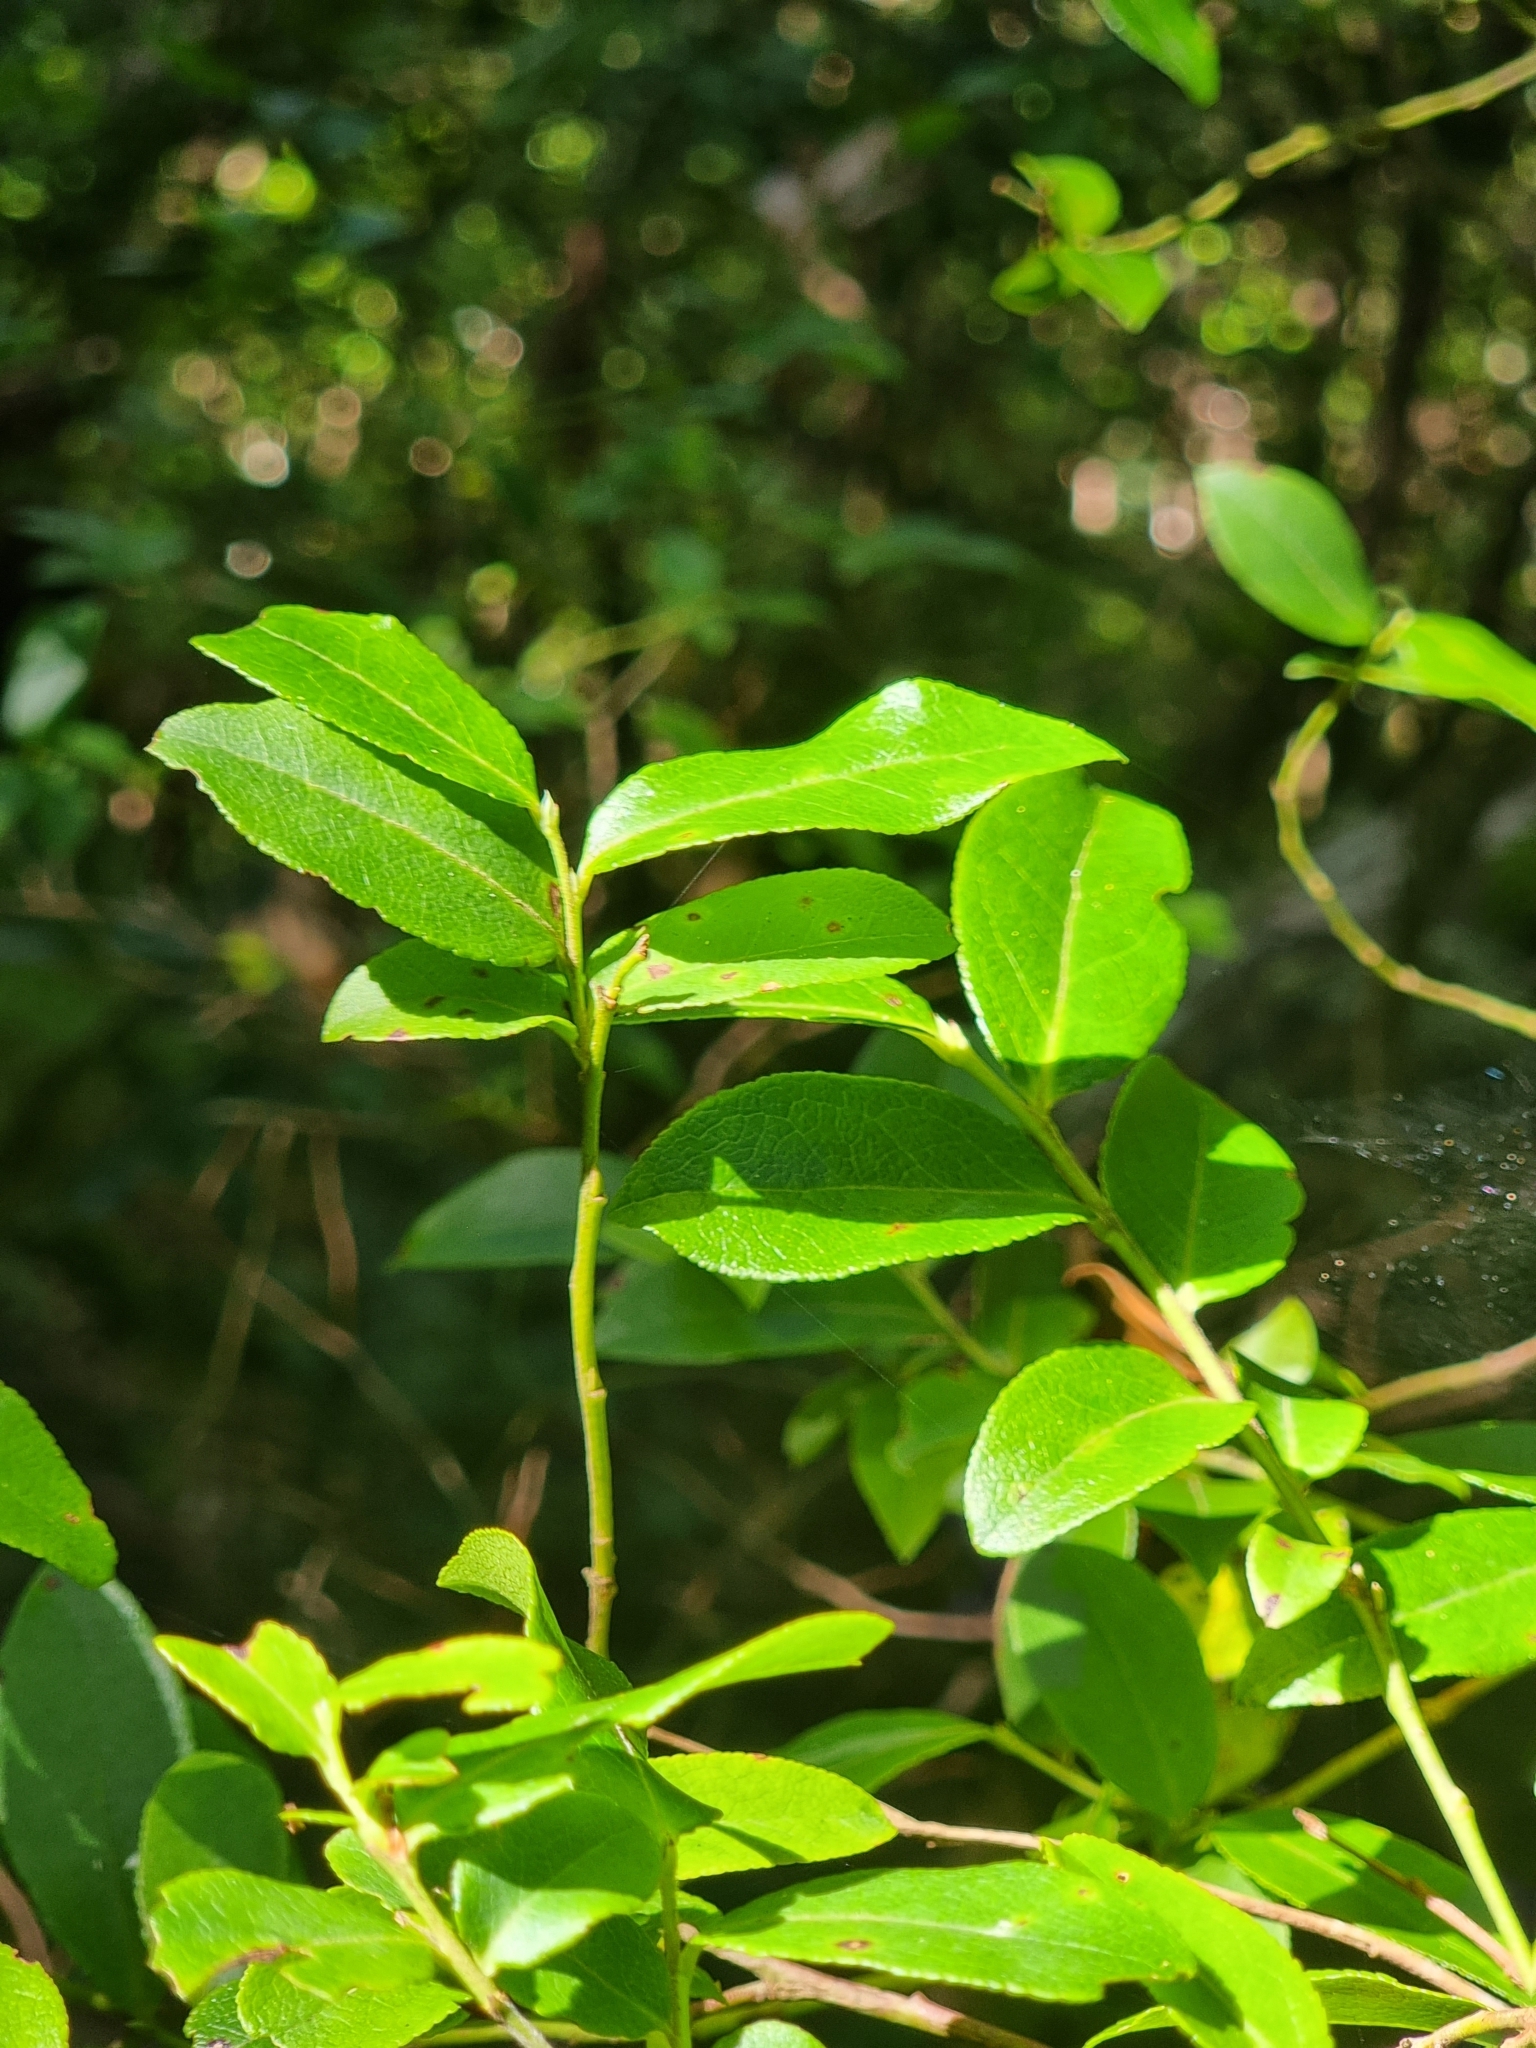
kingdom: Plantae
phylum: Tracheophyta
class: Magnoliopsida
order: Ericales
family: Ericaceae
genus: Vaccinium
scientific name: Vaccinium padifolium
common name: Madeiran blueberry
